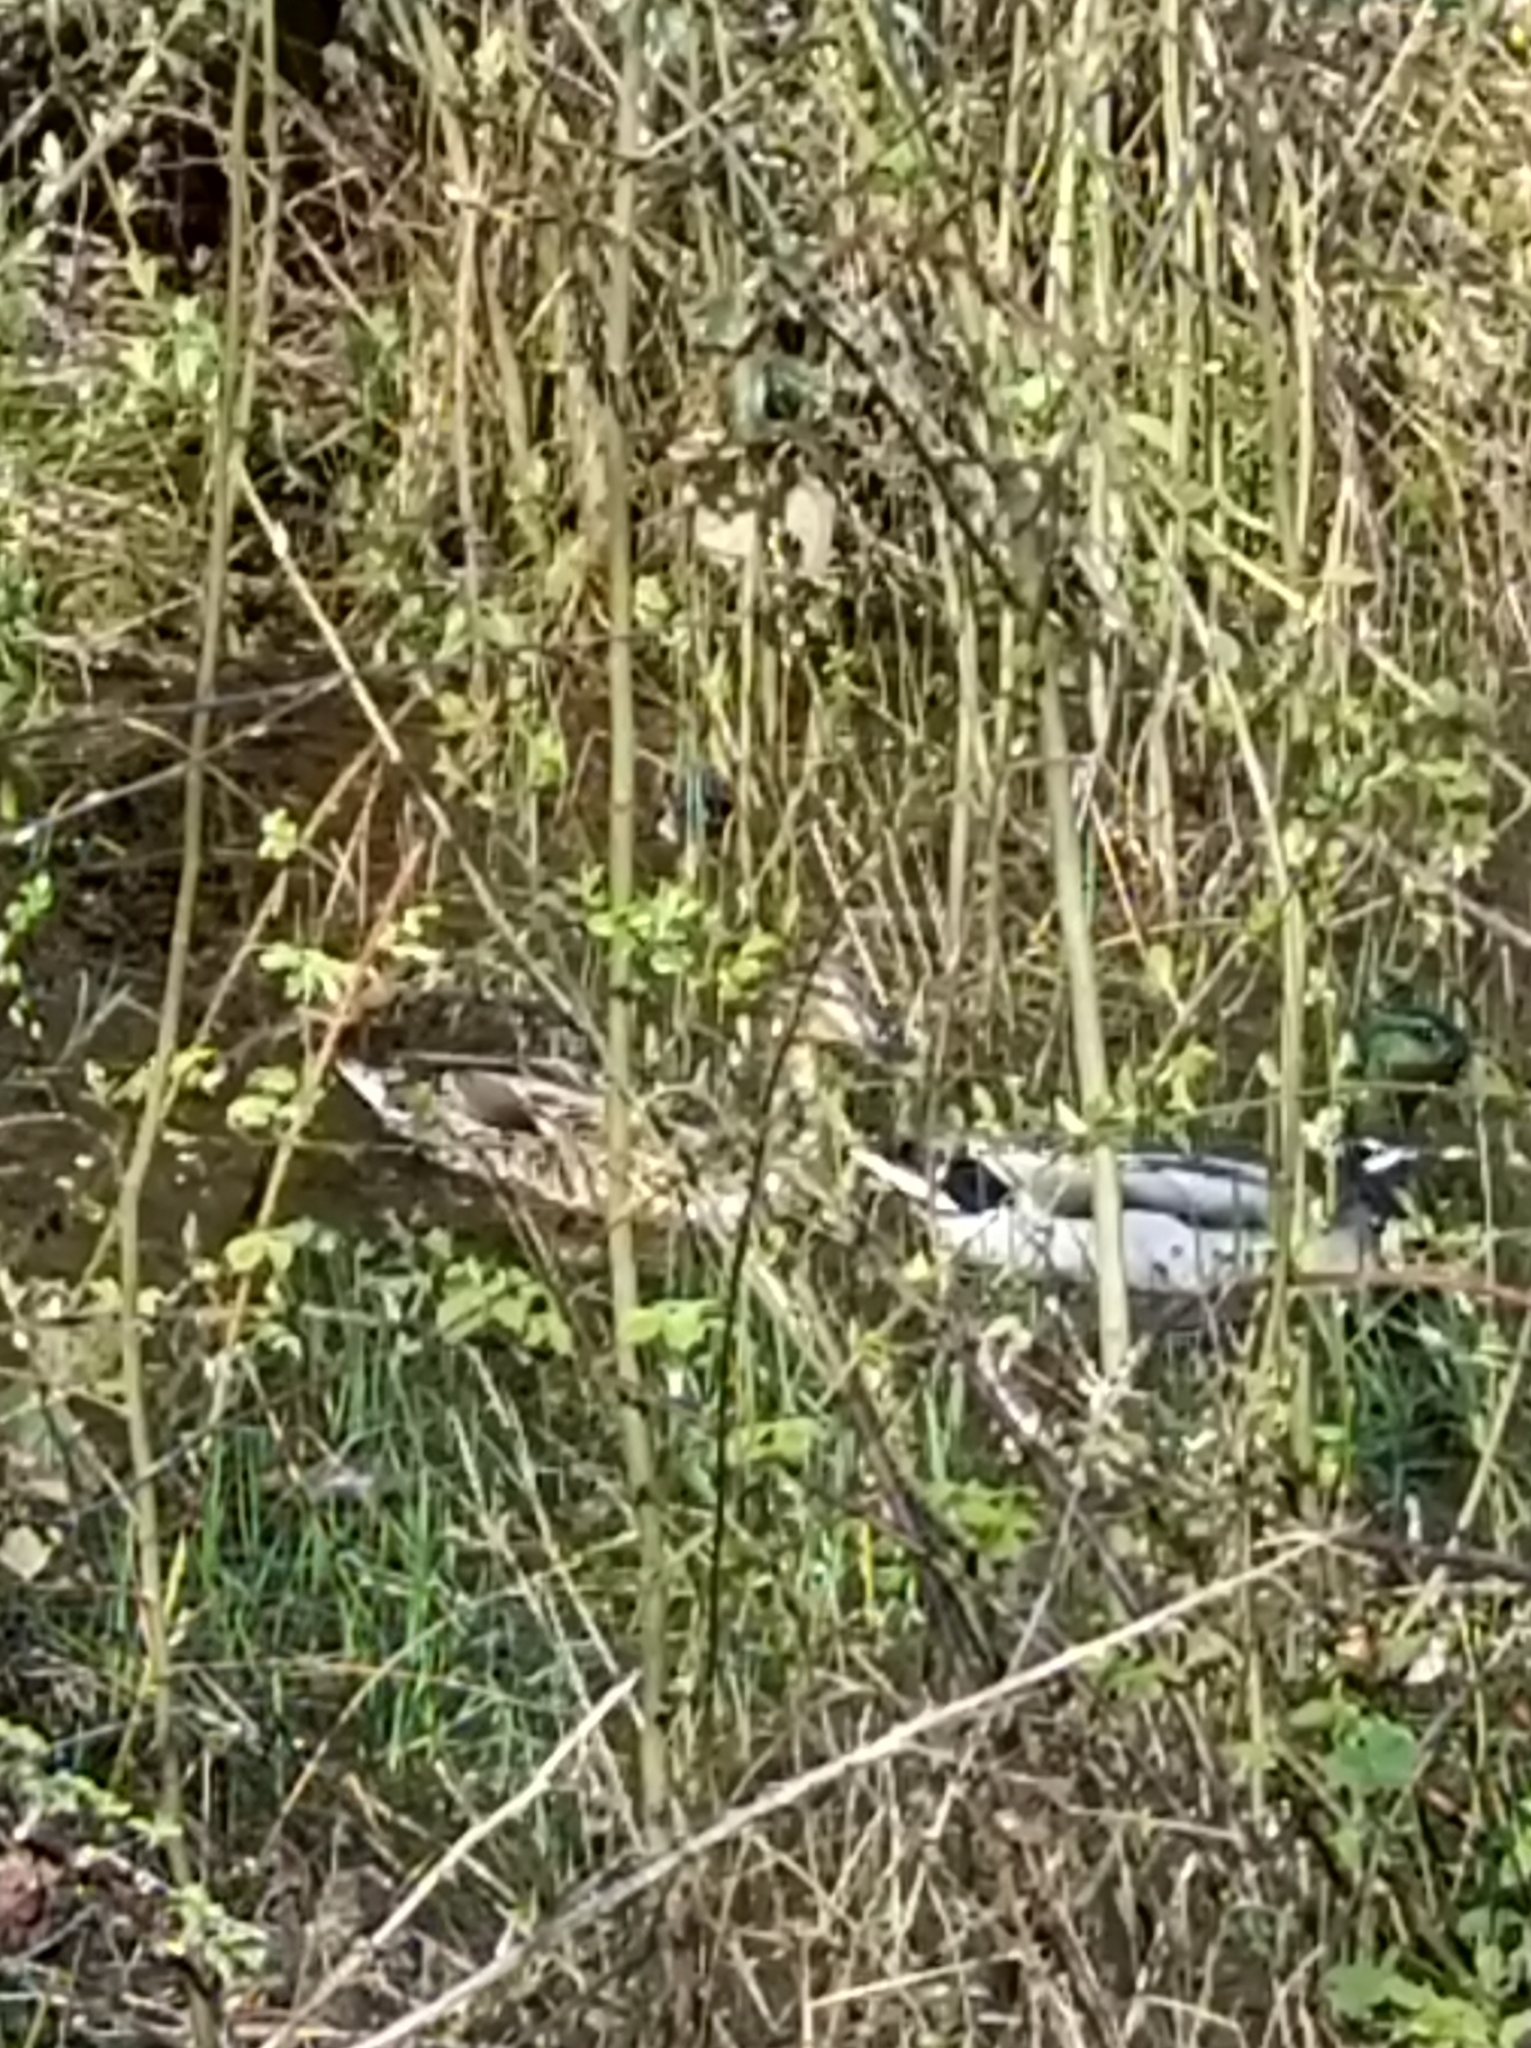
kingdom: Animalia
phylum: Chordata
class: Aves
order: Anseriformes
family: Anatidae
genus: Anas
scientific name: Anas platyrhynchos
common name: Mallard
